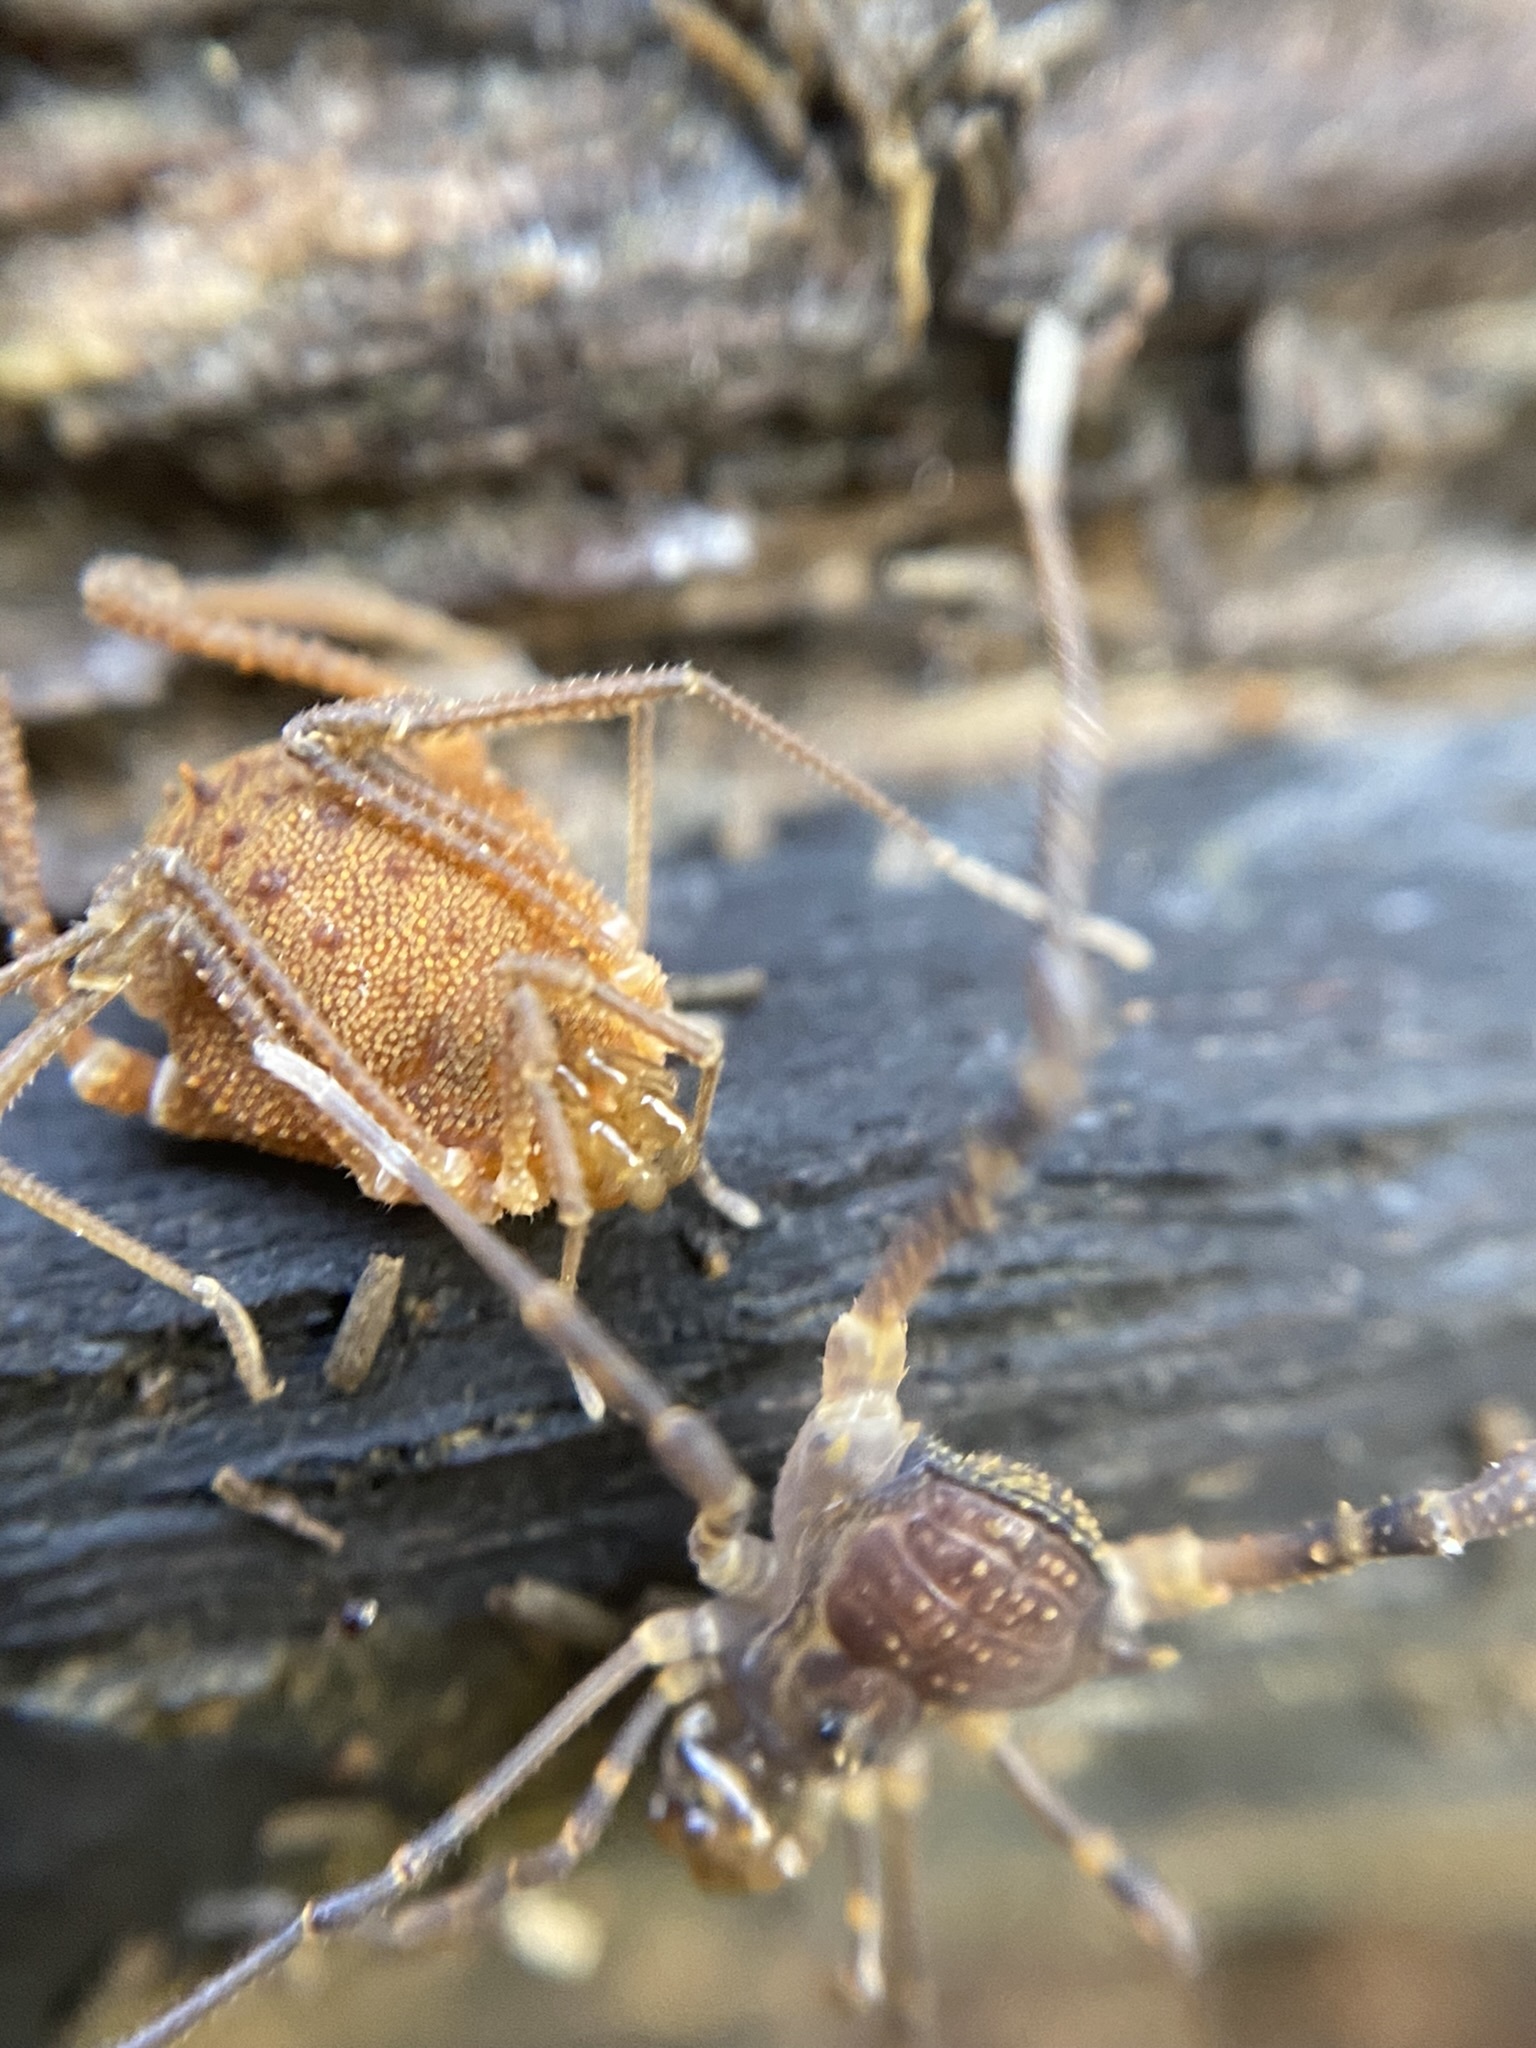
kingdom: Animalia
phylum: Arthropoda
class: Arachnida
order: Opiliones
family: Gonyleptidae
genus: Hernandaria
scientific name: Hernandaria scabricula
